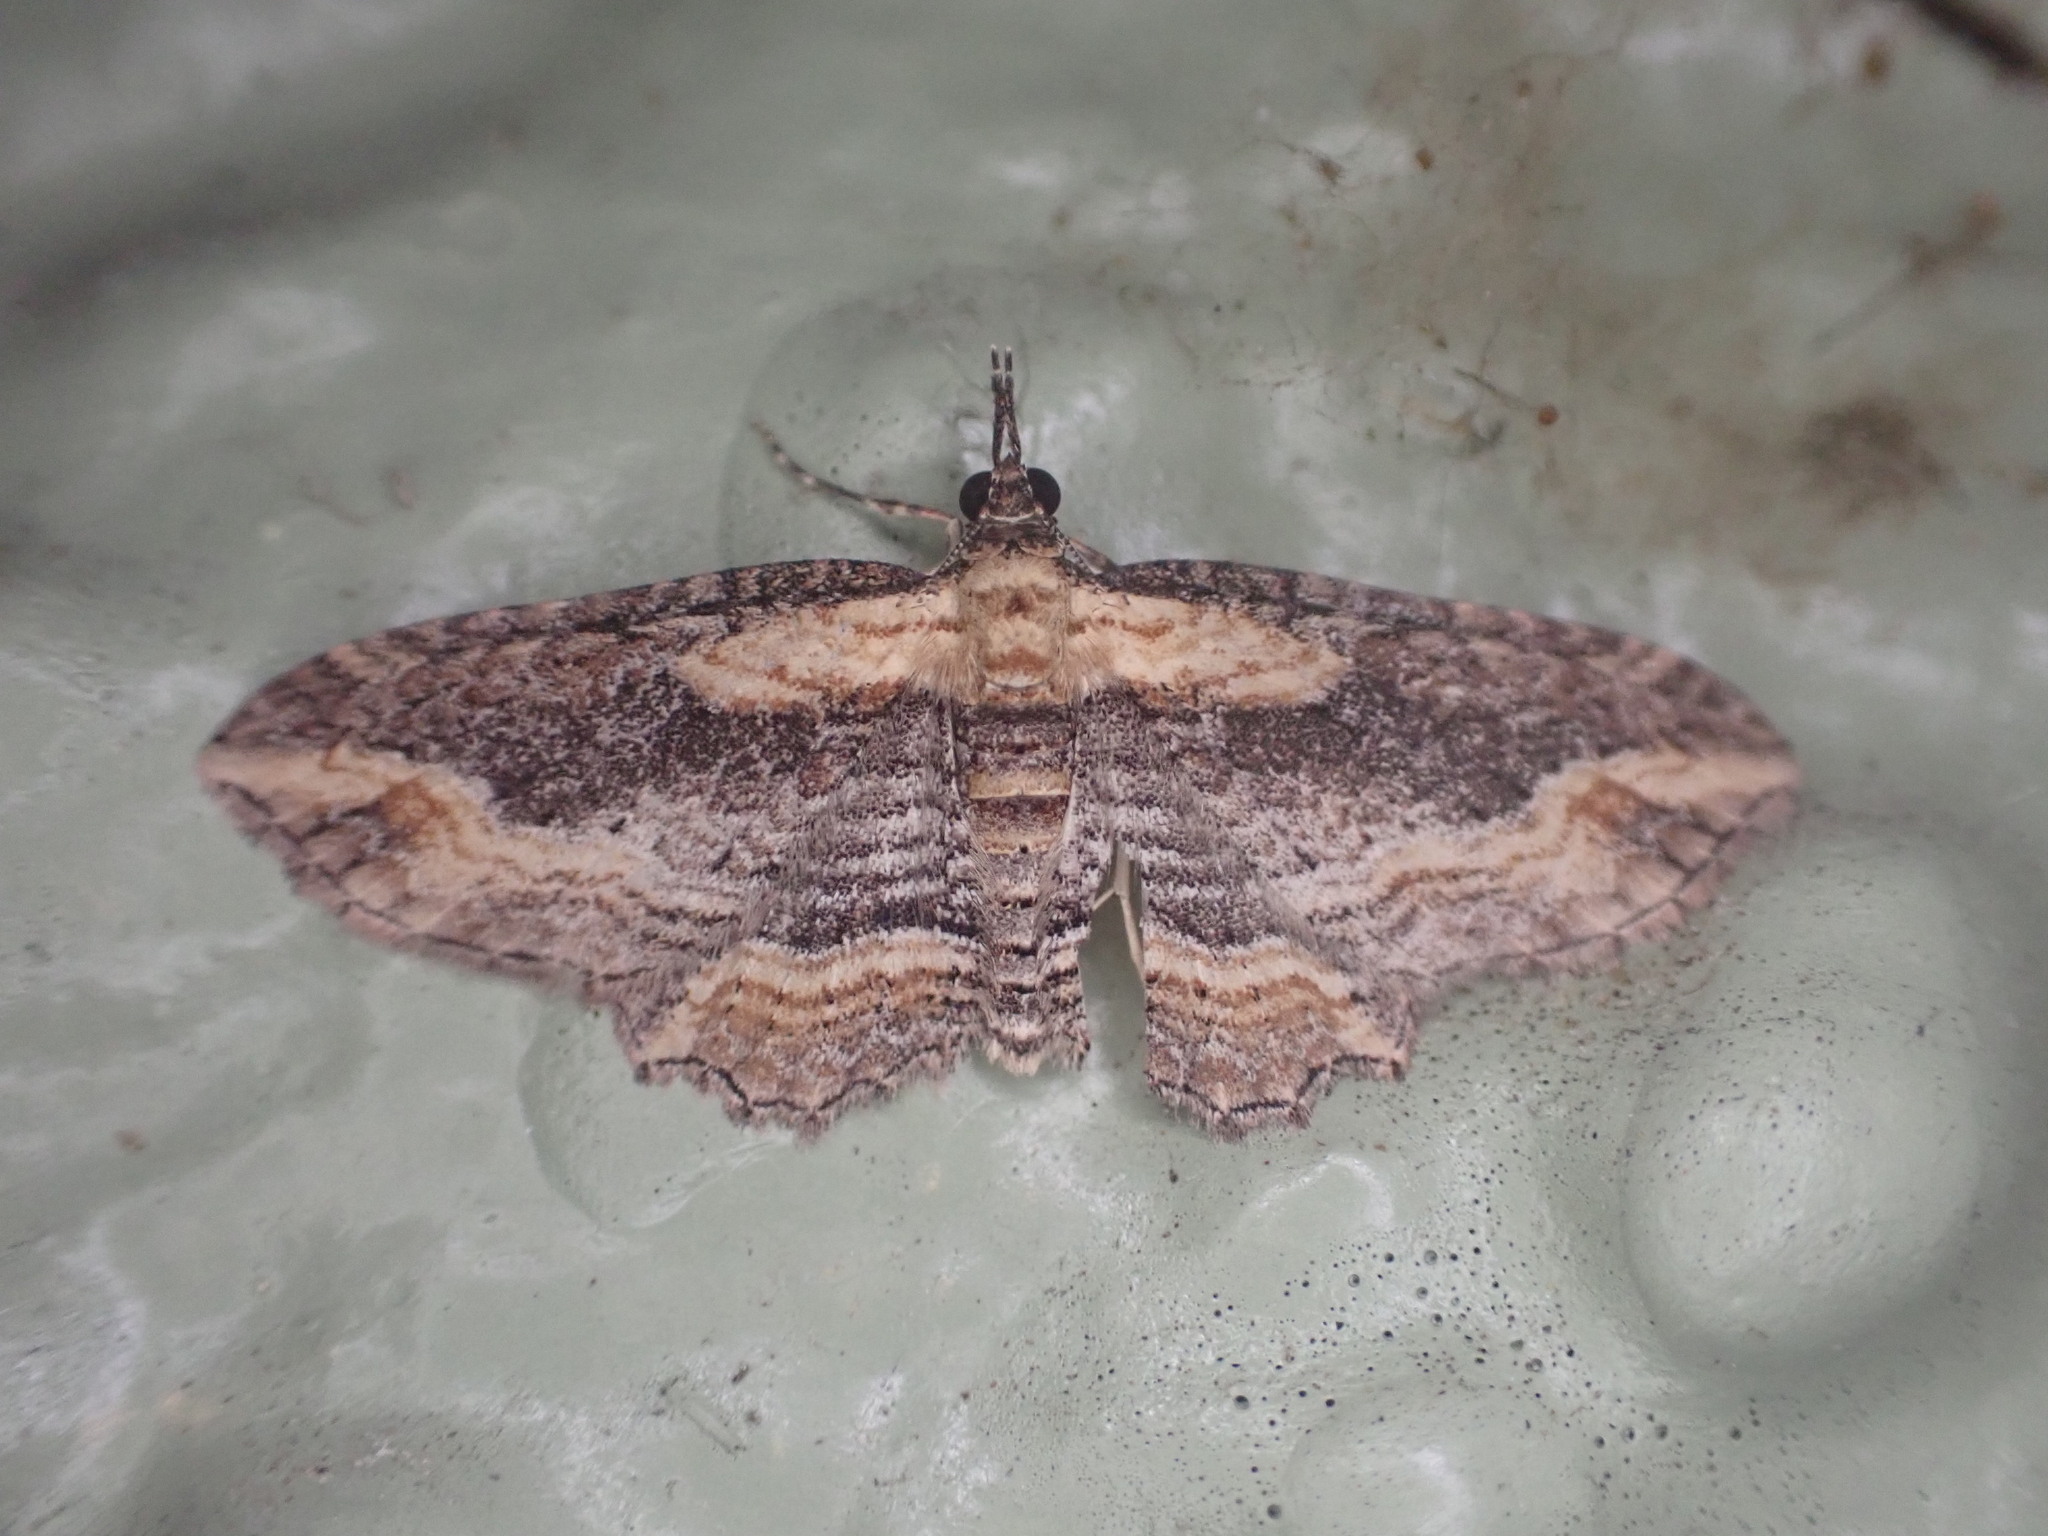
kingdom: Animalia
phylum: Arthropoda
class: Insecta
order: Lepidoptera
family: Geometridae
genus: Chloroclystis
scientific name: Chloroclystis filata
